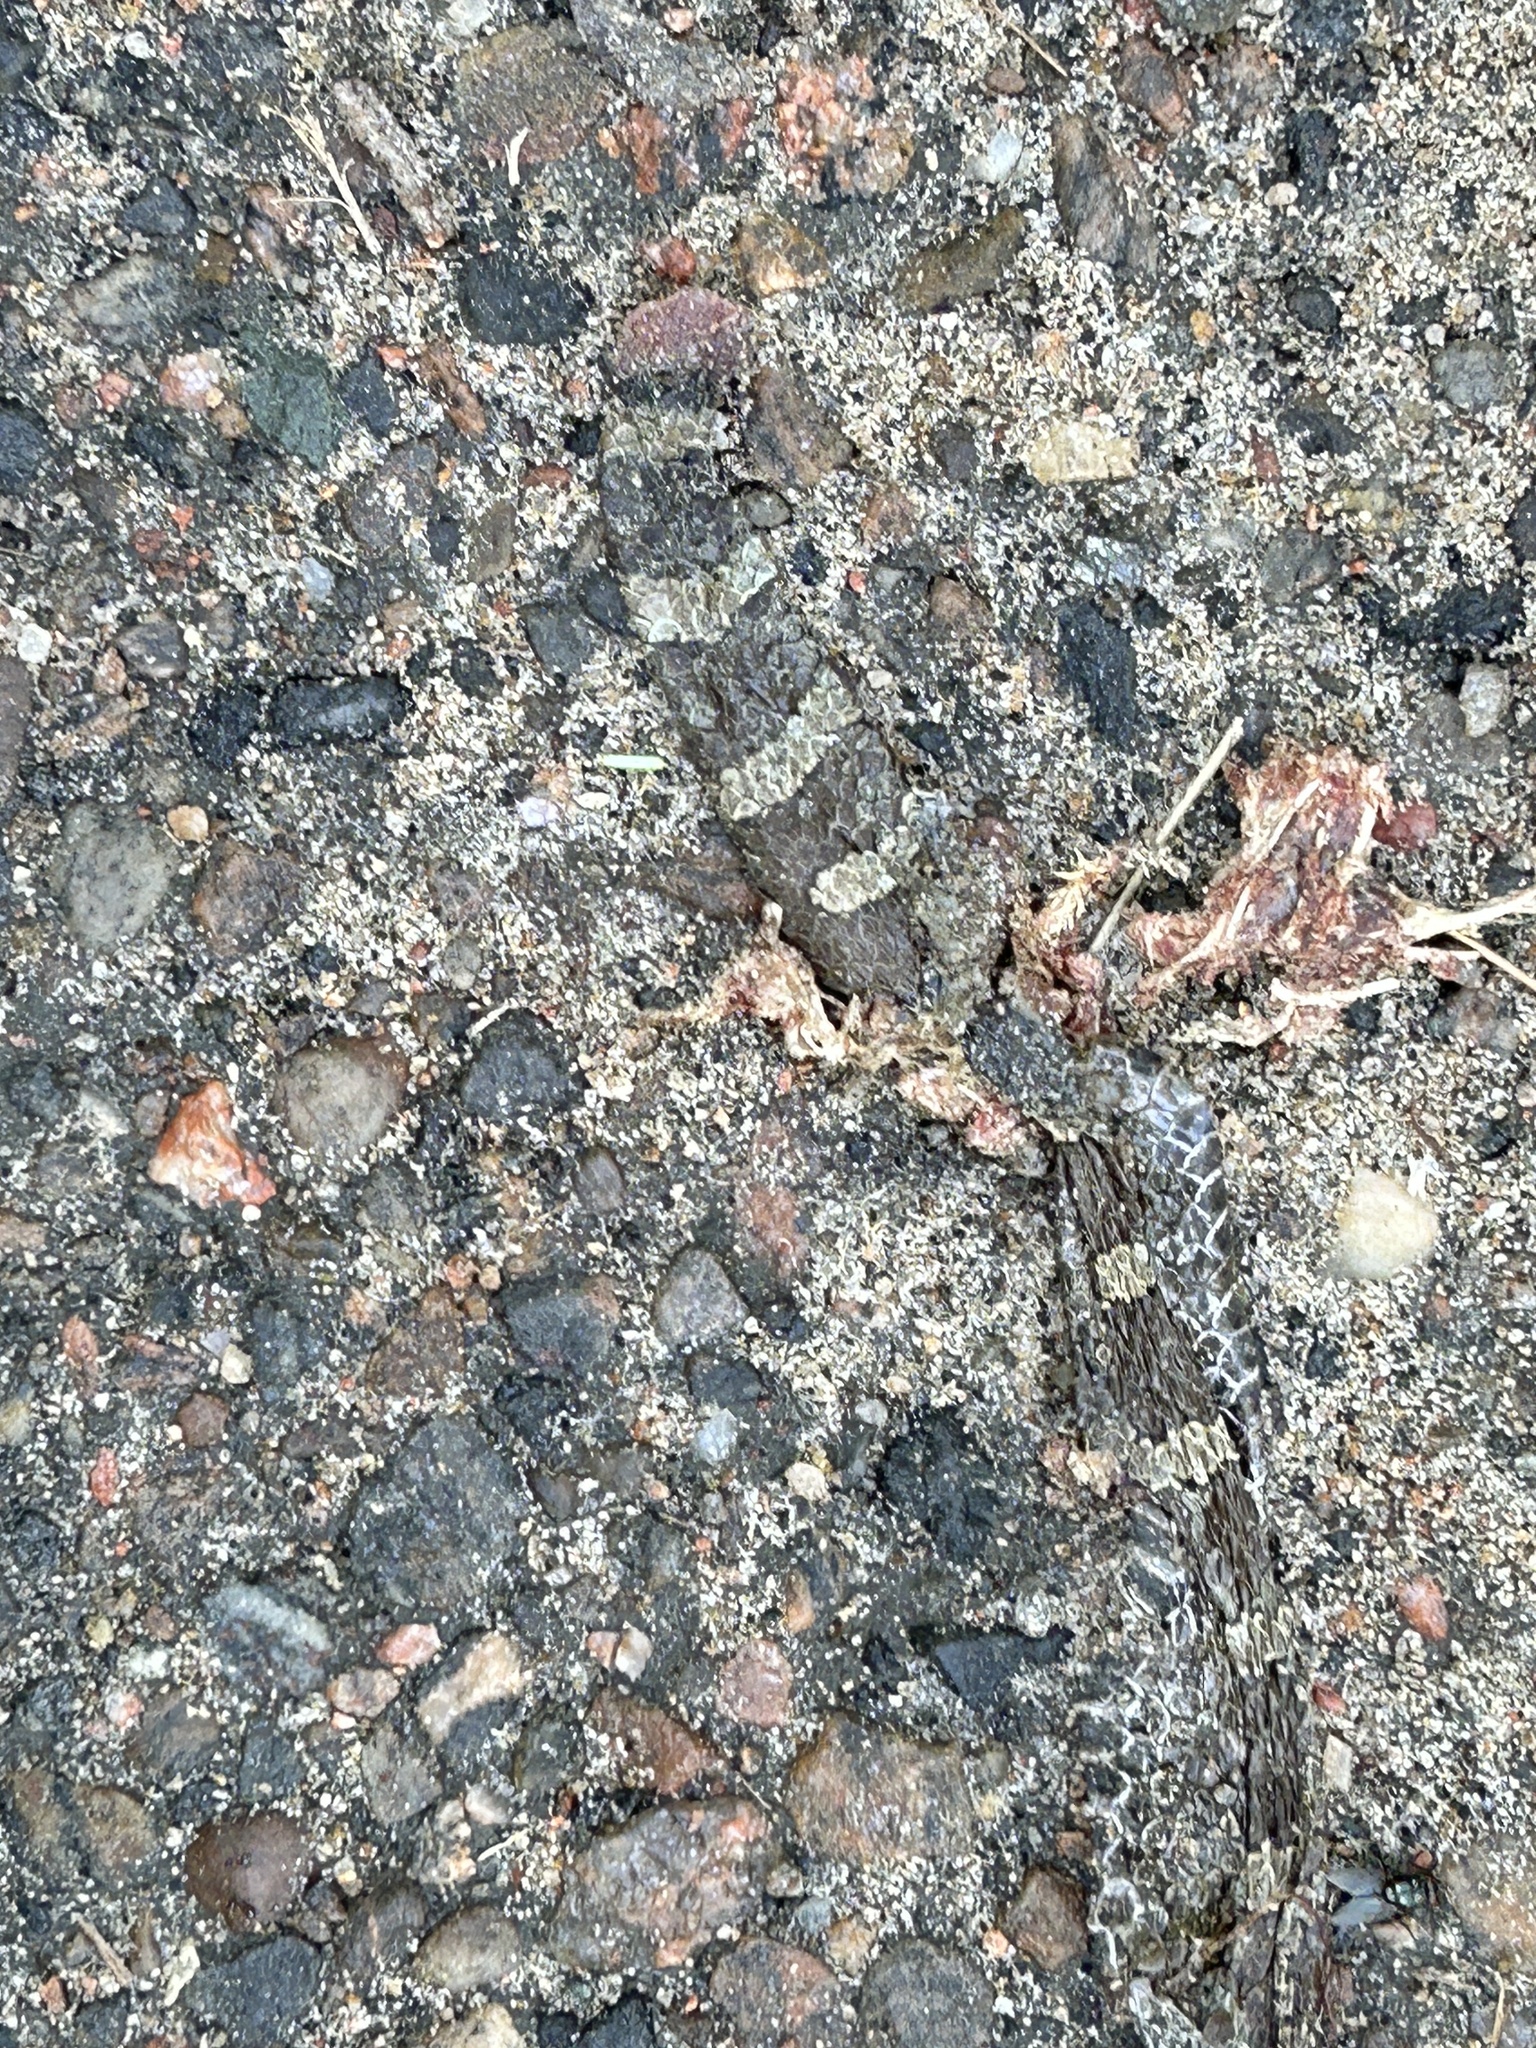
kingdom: Animalia
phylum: Chordata
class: Squamata
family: Viperidae
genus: Sistrurus
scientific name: Sistrurus catenatus
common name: Massasauga
